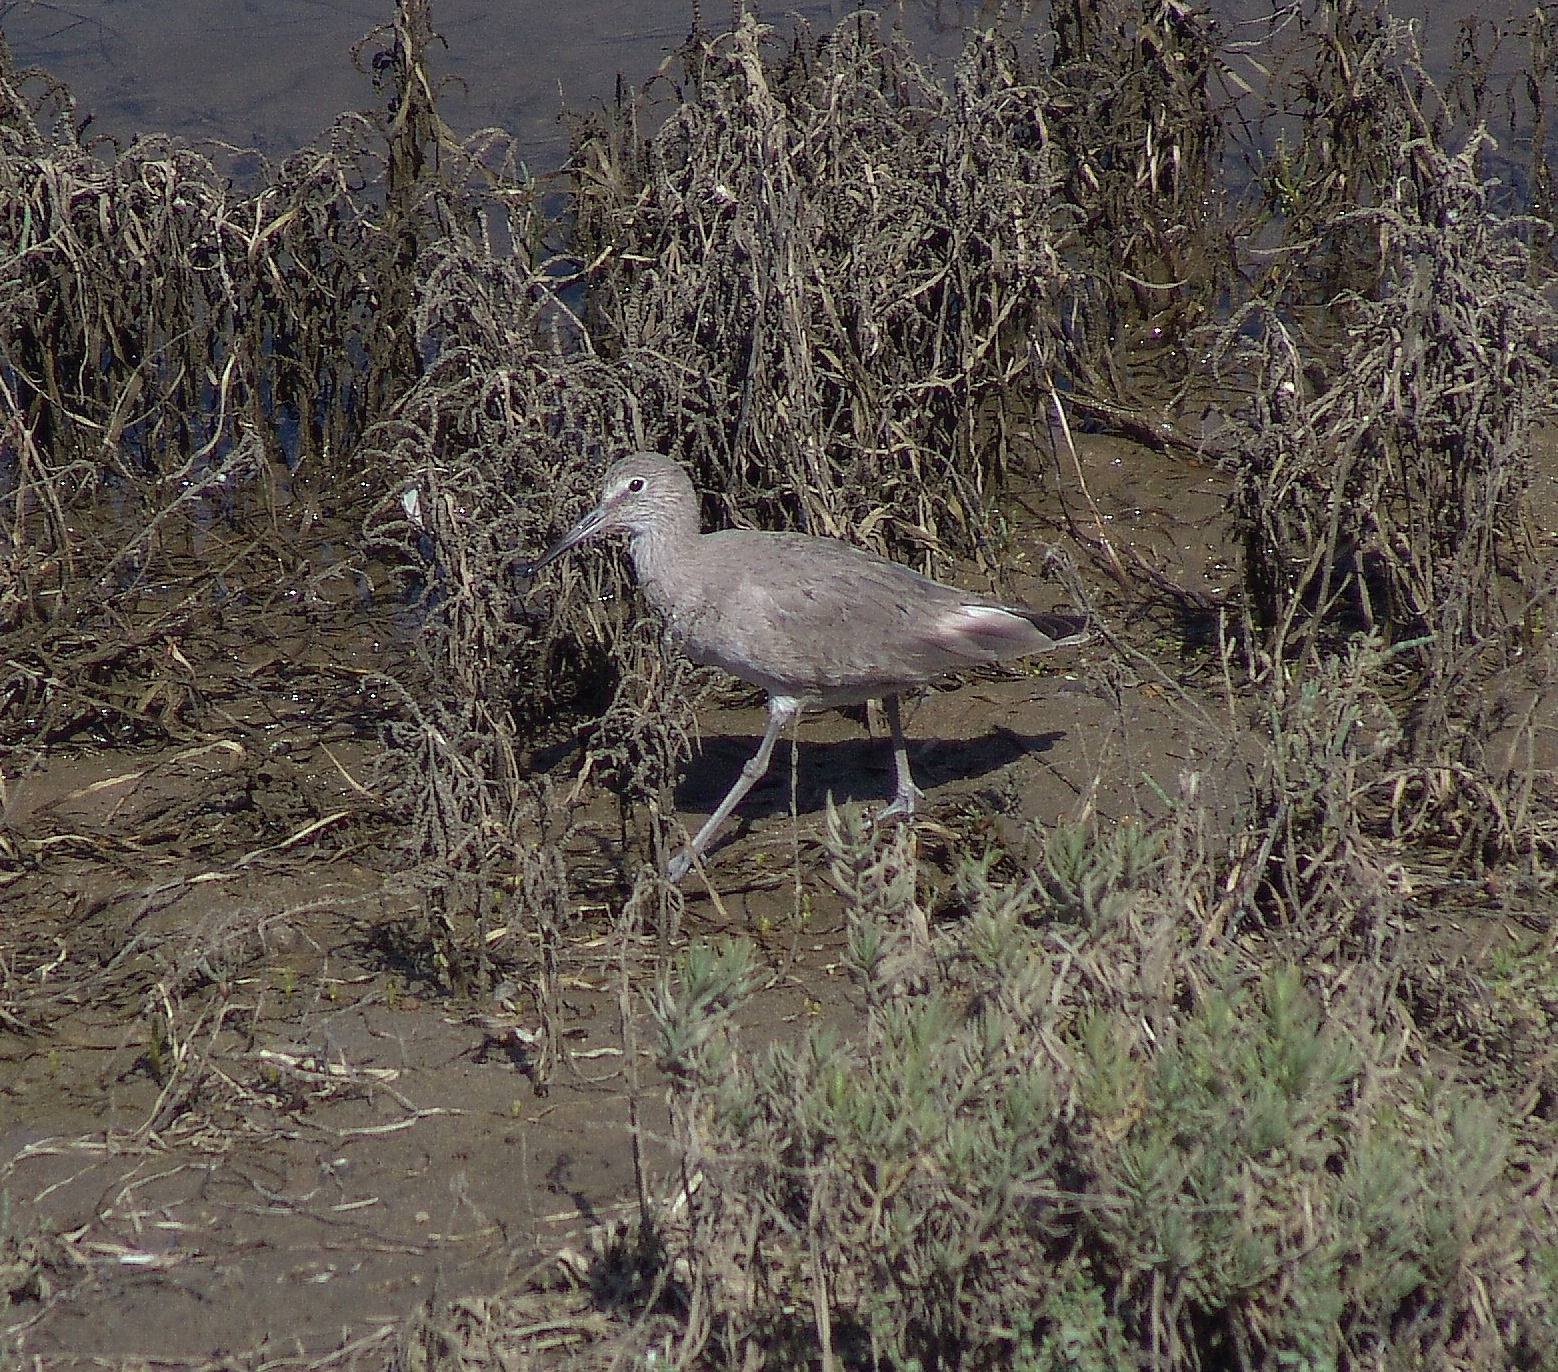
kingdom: Animalia
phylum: Chordata
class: Aves
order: Charadriiformes
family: Scolopacidae
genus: Tringa
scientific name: Tringa semipalmata
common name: Willet
